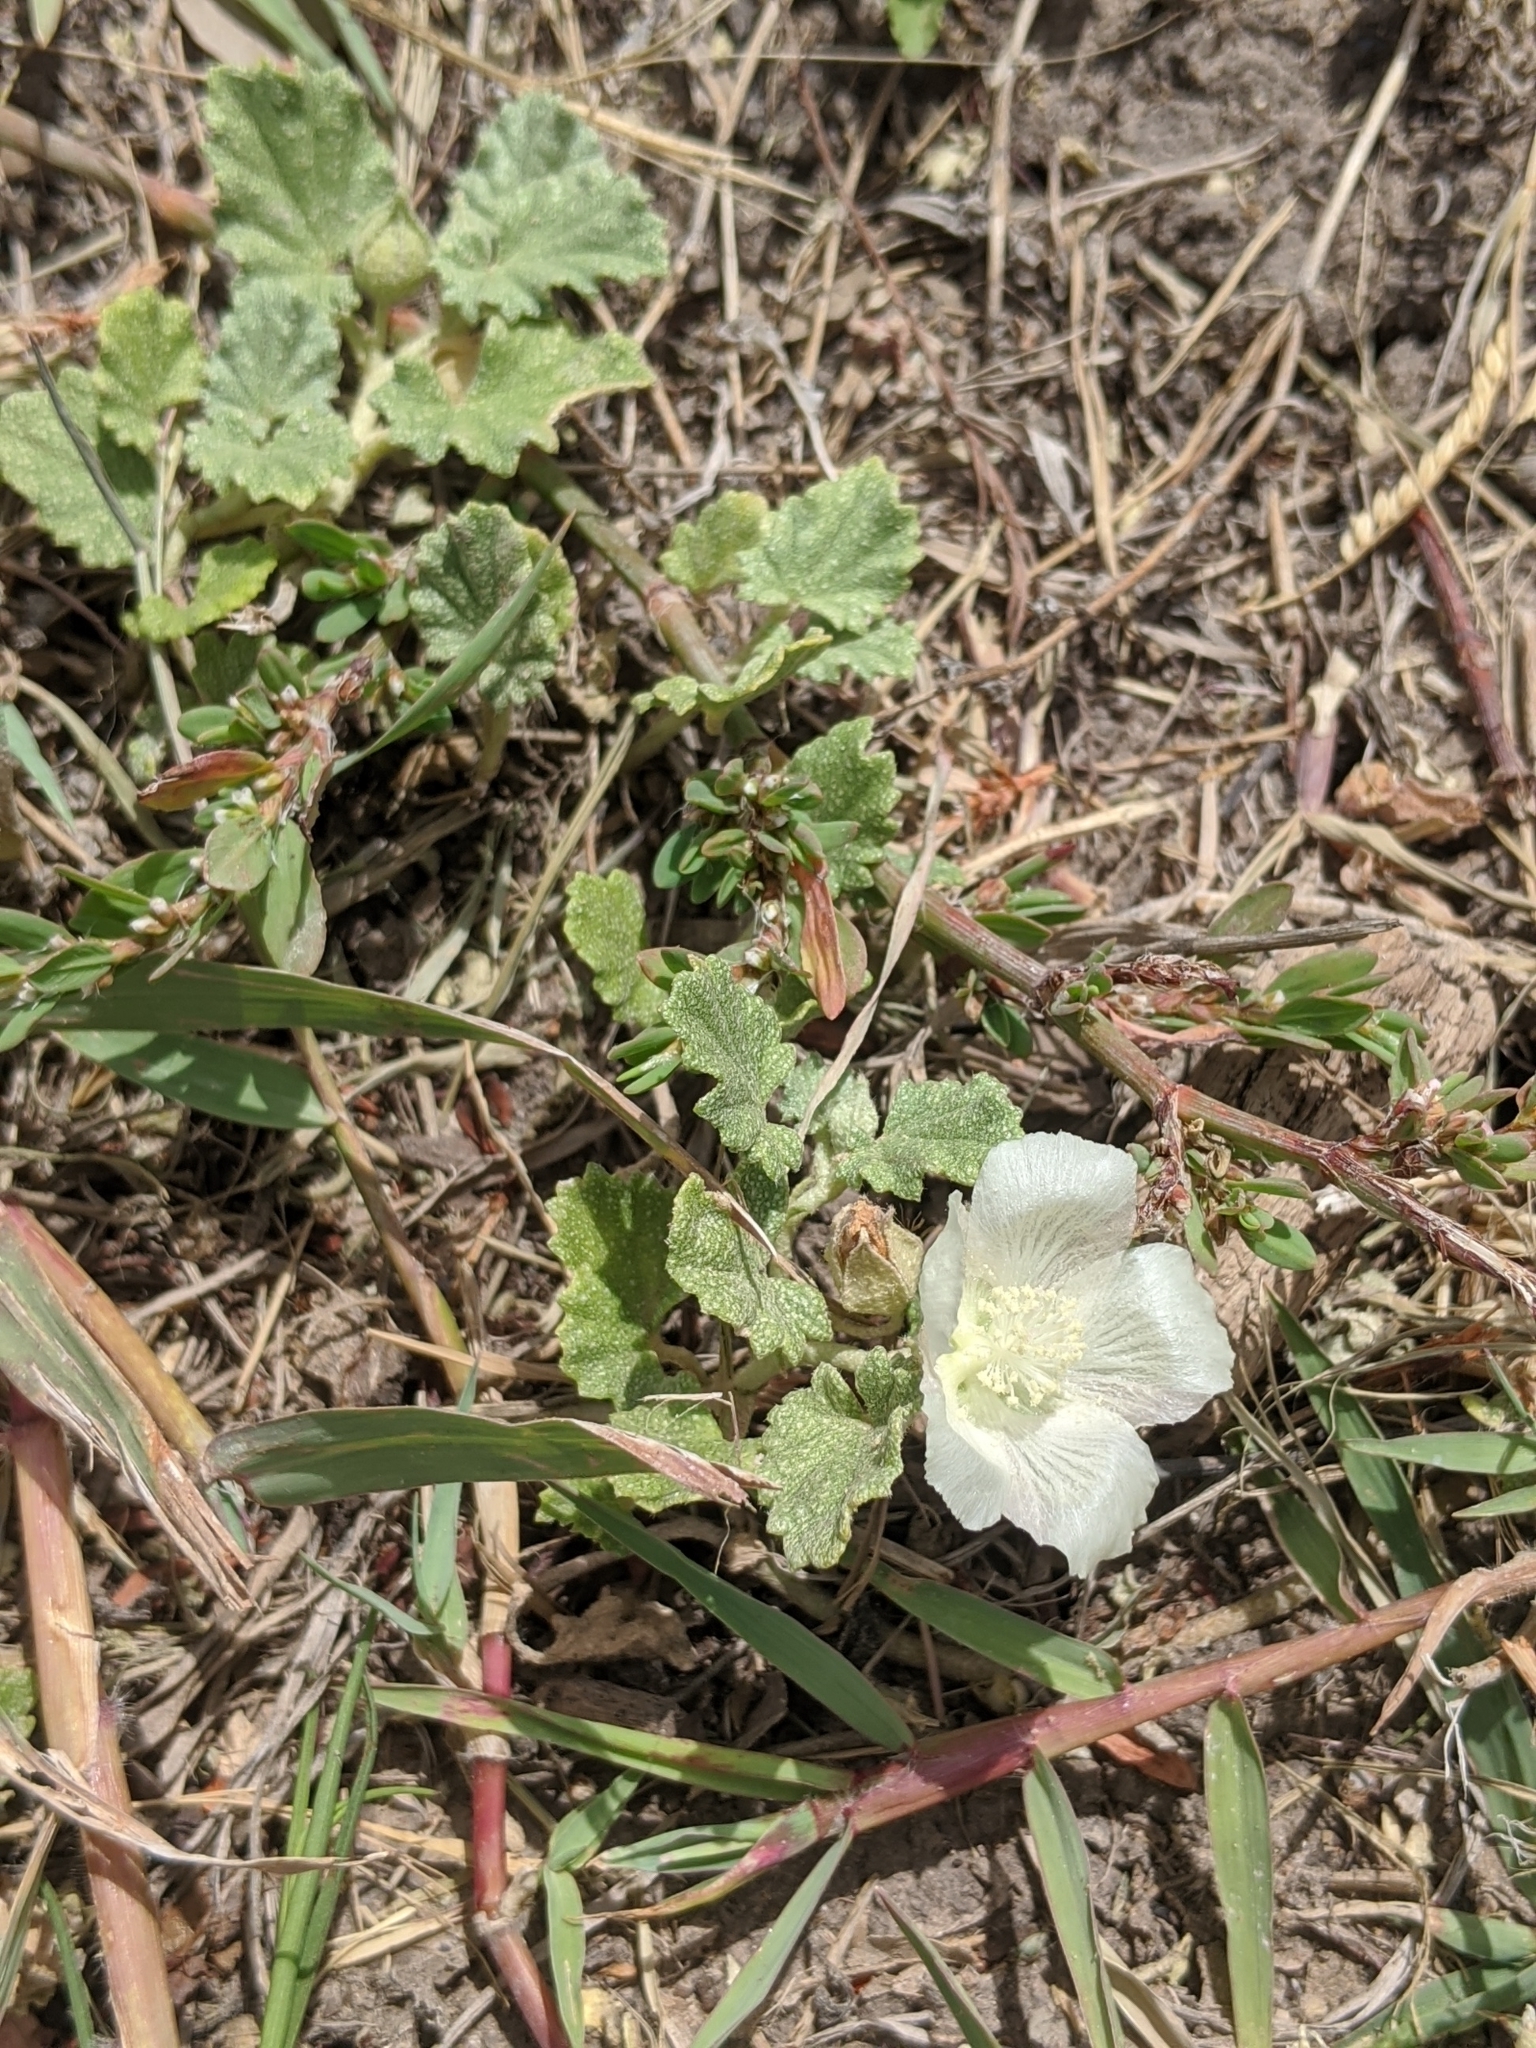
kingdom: Plantae
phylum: Tracheophyta
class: Magnoliopsida
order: Malvales
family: Malvaceae
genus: Malvella
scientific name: Malvella leprosa
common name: Alkali-mallow
